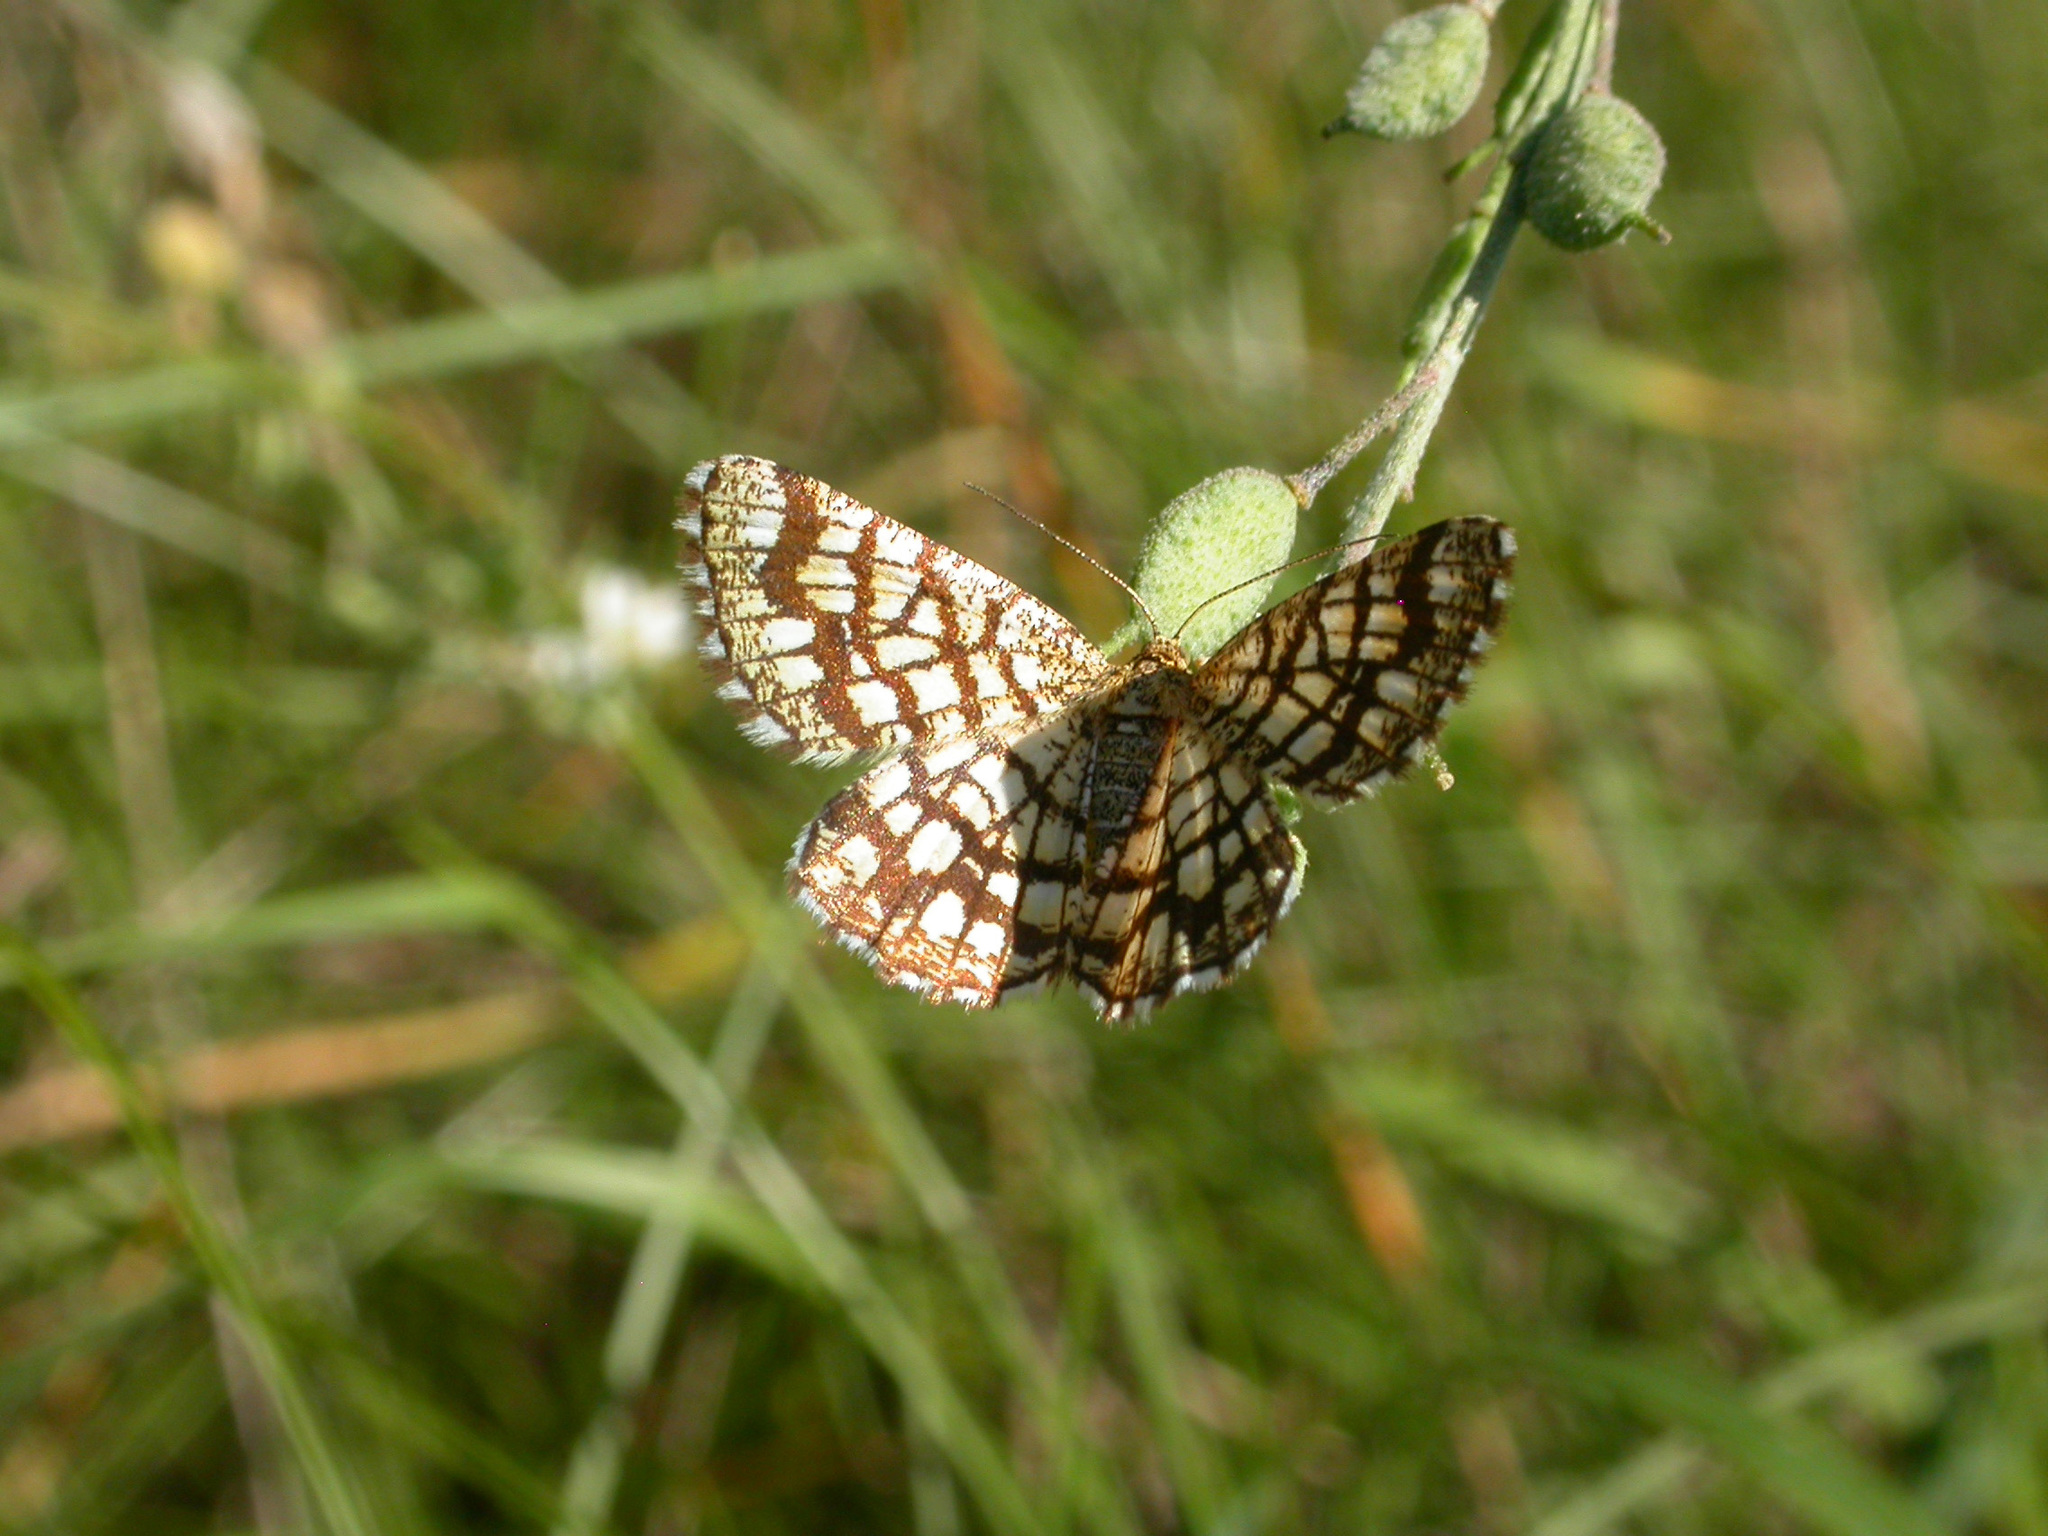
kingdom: Animalia
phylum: Arthropoda
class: Insecta
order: Lepidoptera
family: Geometridae
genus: Chiasmia
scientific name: Chiasmia clathrata
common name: Latticed heath
